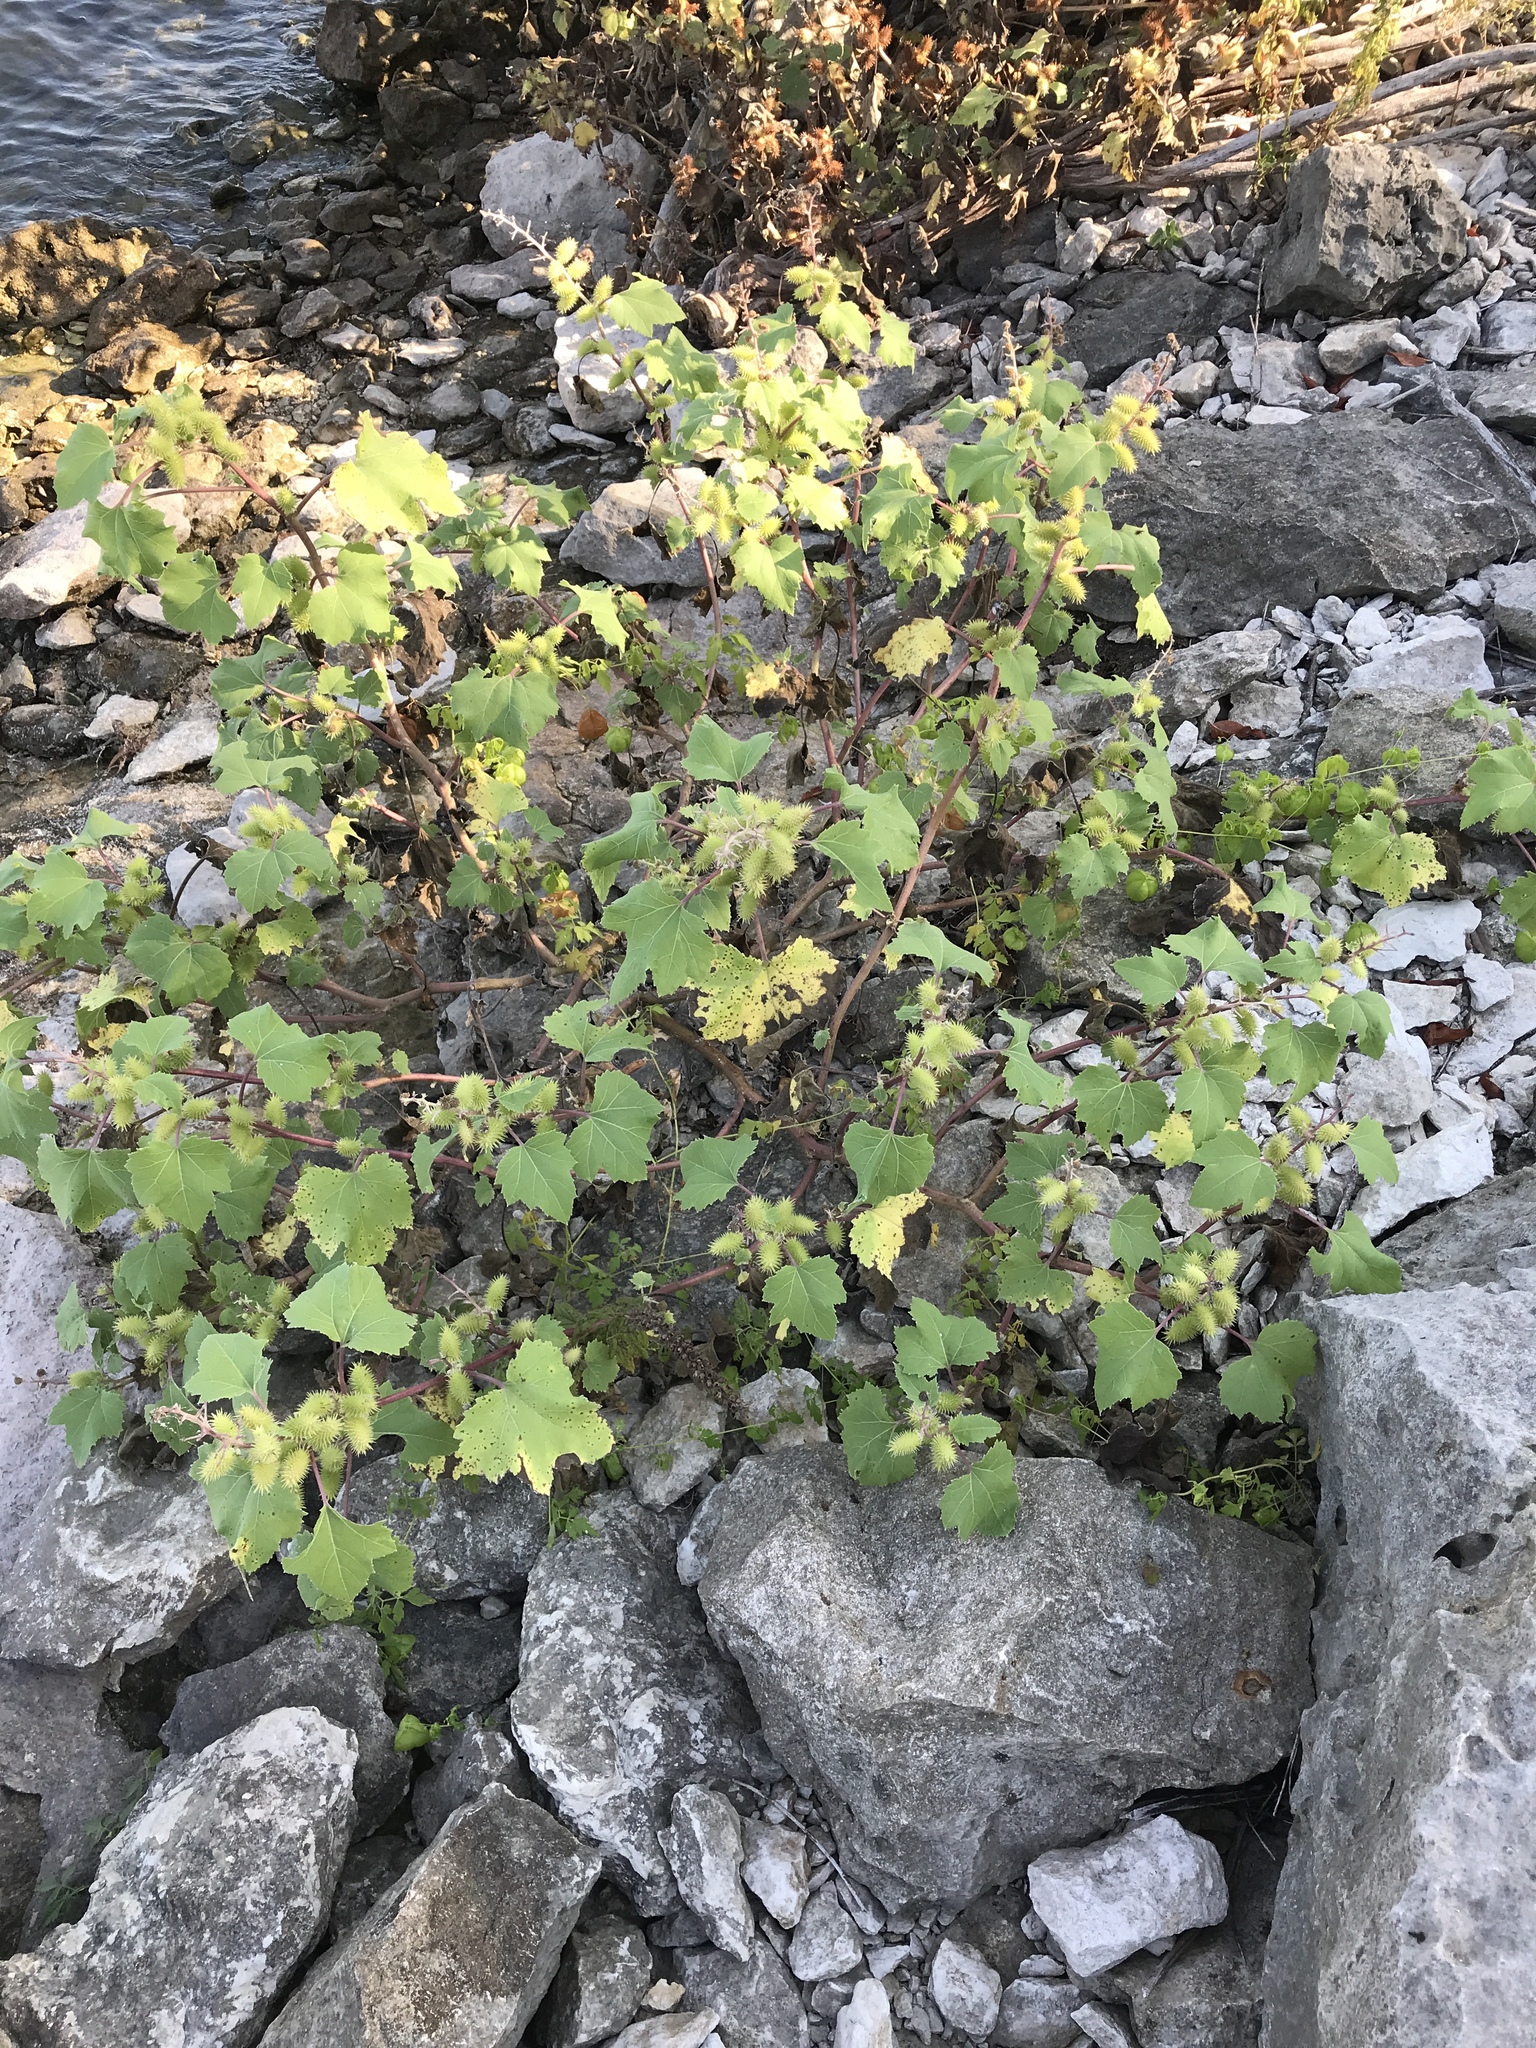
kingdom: Plantae
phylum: Tracheophyta
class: Magnoliopsida
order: Asterales
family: Asteraceae
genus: Xanthium
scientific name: Xanthium strumarium
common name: Rough cocklebur
